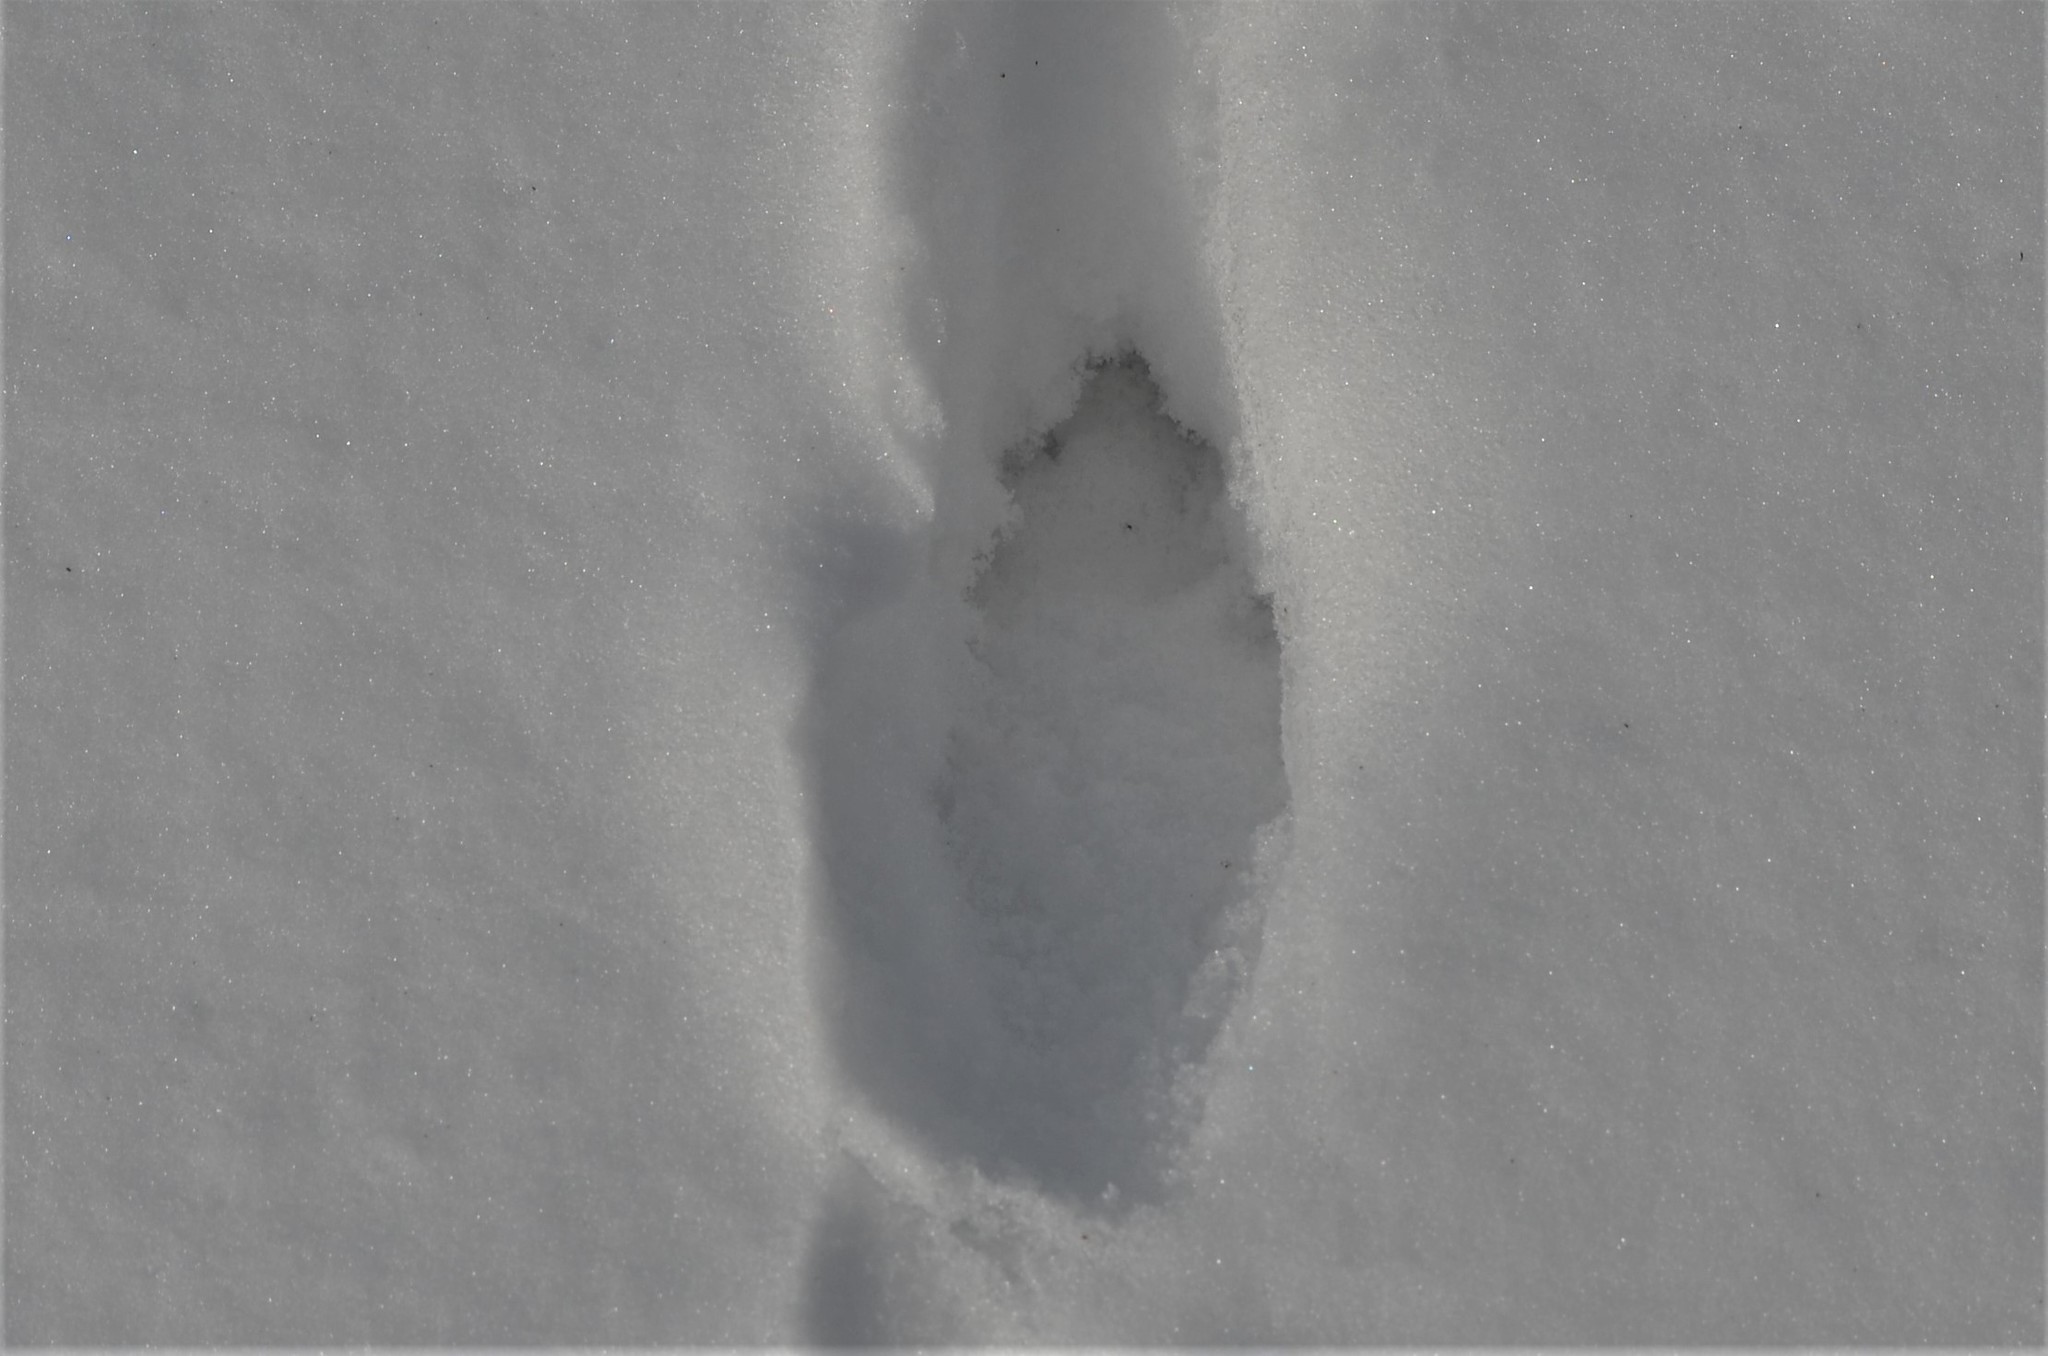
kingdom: Animalia
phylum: Chordata
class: Mammalia
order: Lagomorpha
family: Leporidae
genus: Lepus
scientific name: Lepus europaeus
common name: European hare
